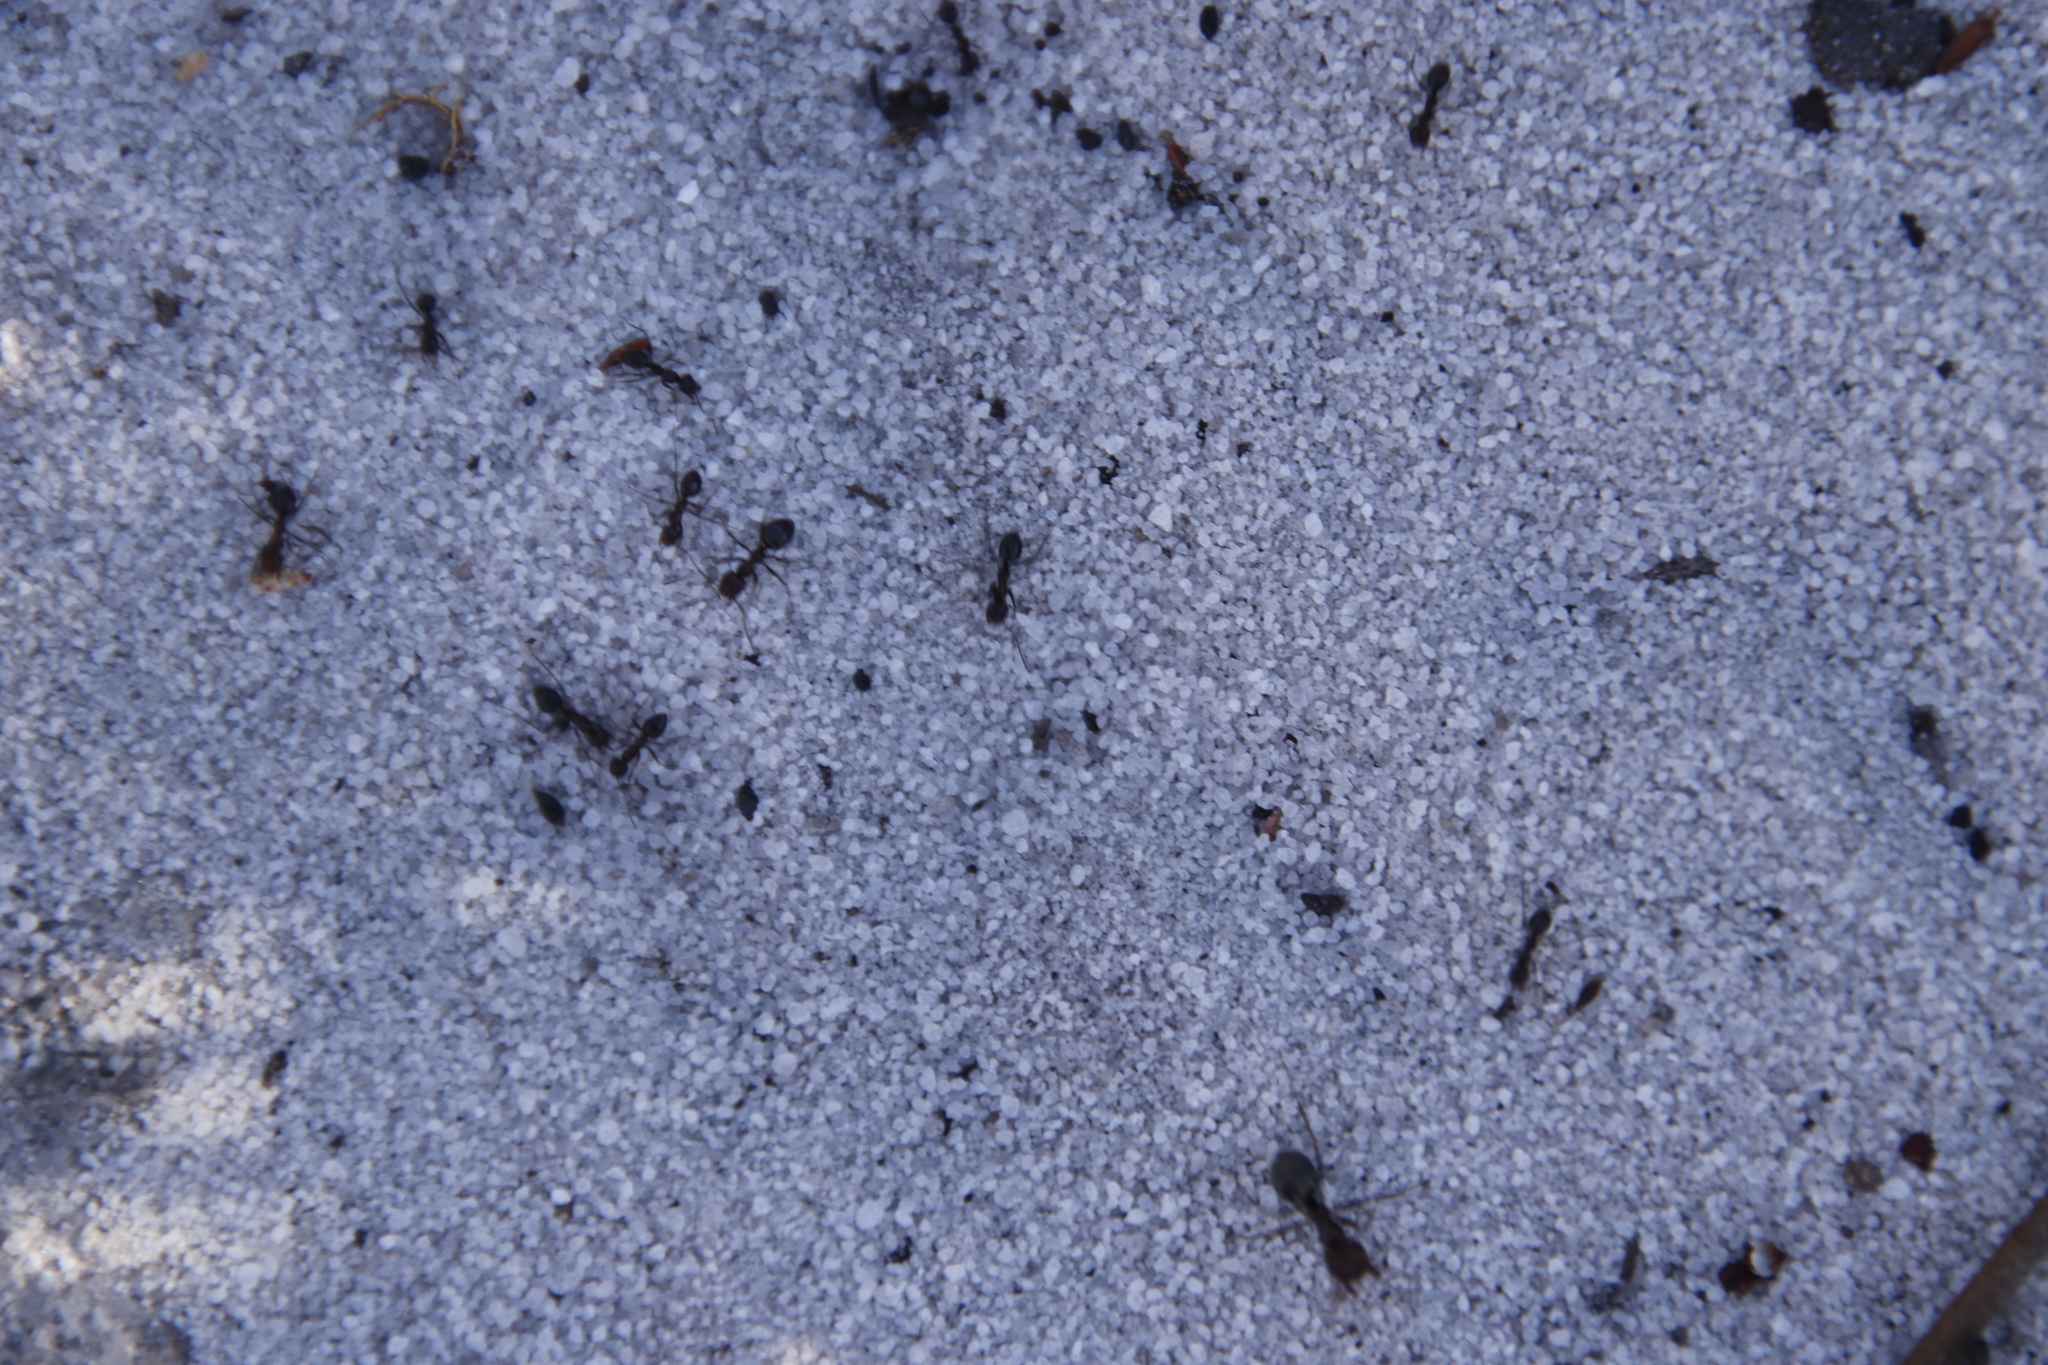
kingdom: Animalia
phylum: Arthropoda
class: Insecta
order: Hymenoptera
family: Formicidae
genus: Anoplolepis
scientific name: Anoplolepis steingroeveri
